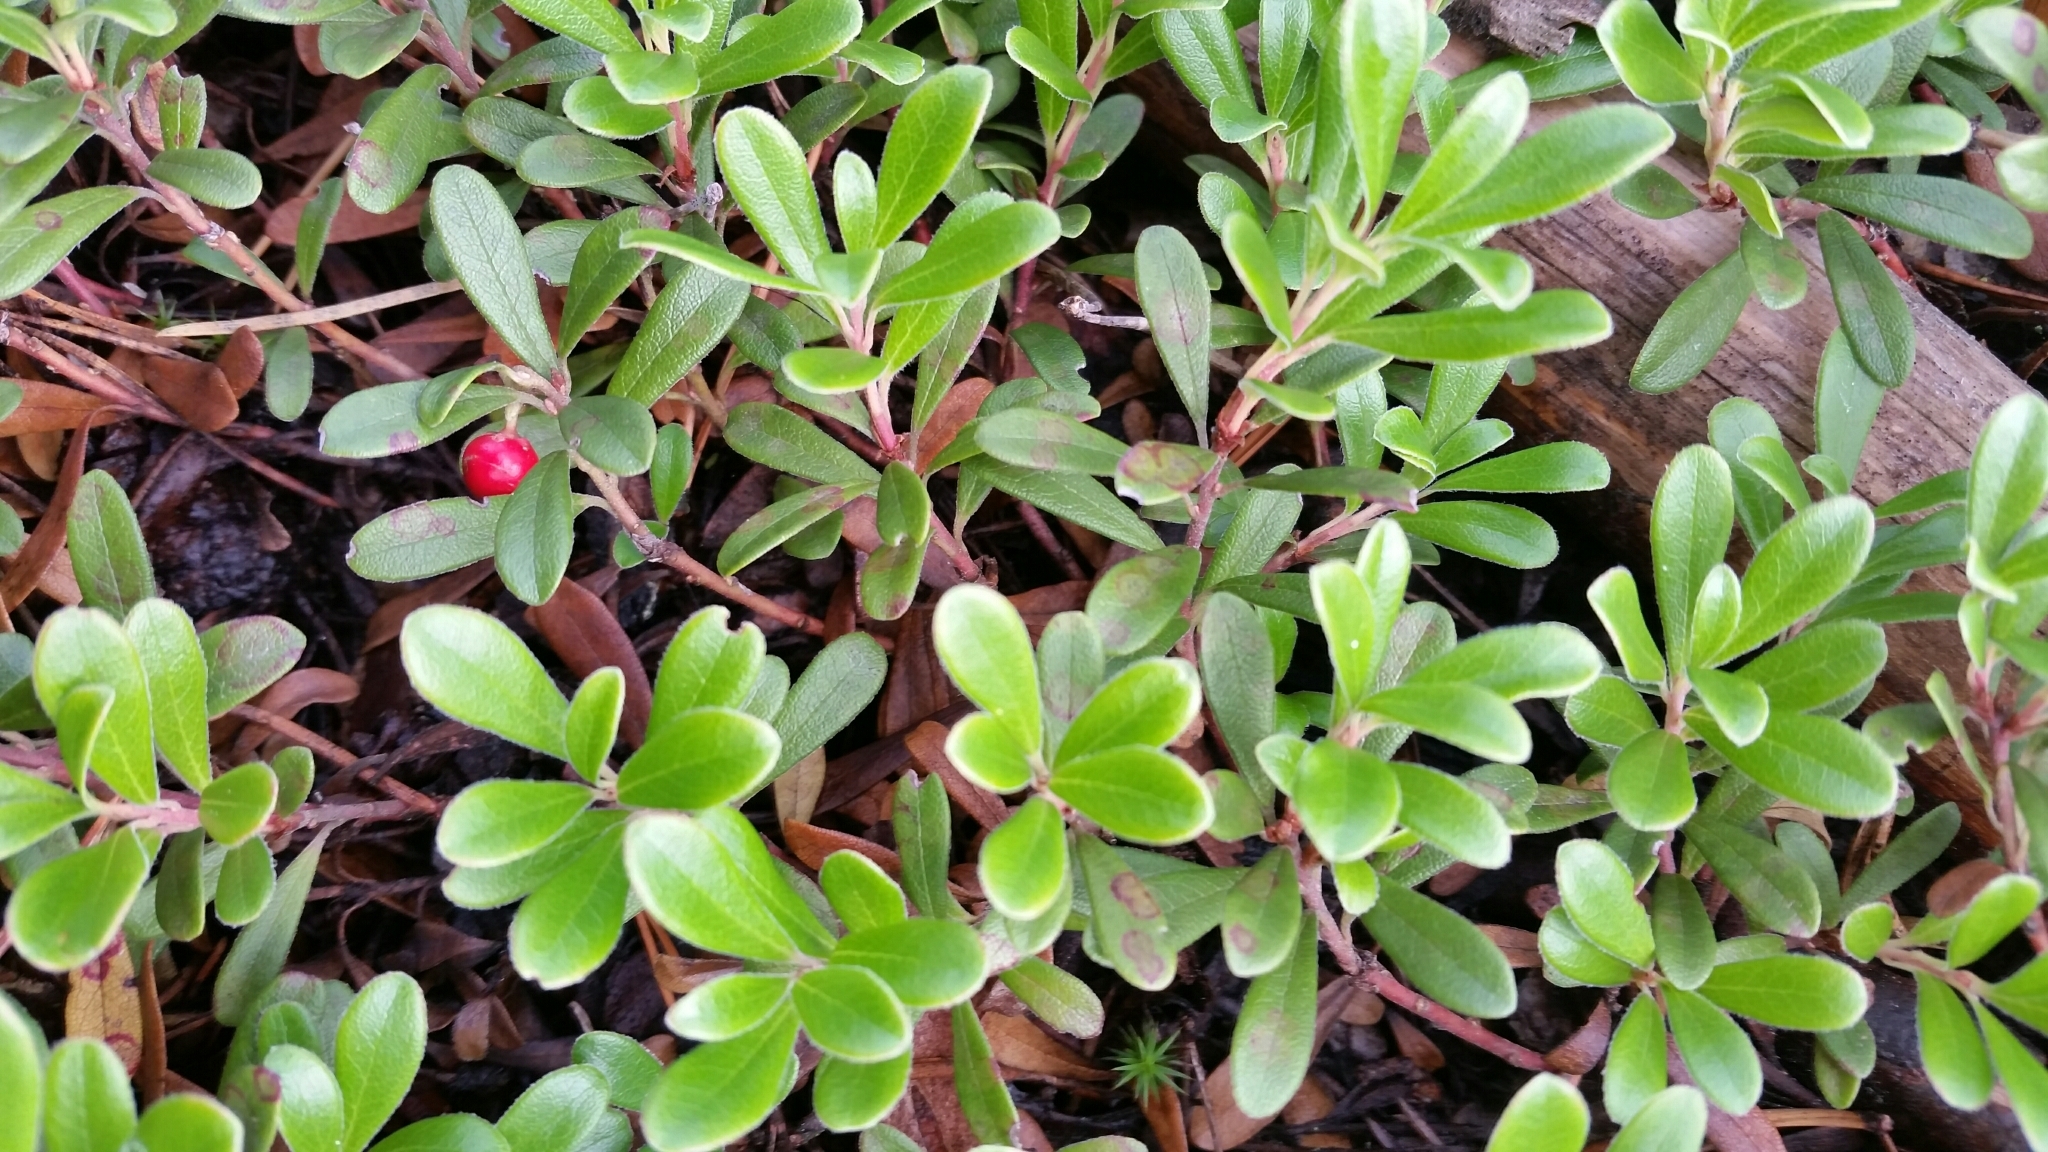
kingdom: Plantae
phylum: Tracheophyta
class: Magnoliopsida
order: Ericales
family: Ericaceae
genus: Arctostaphylos
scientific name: Arctostaphylos uva-ursi
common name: Bearberry
